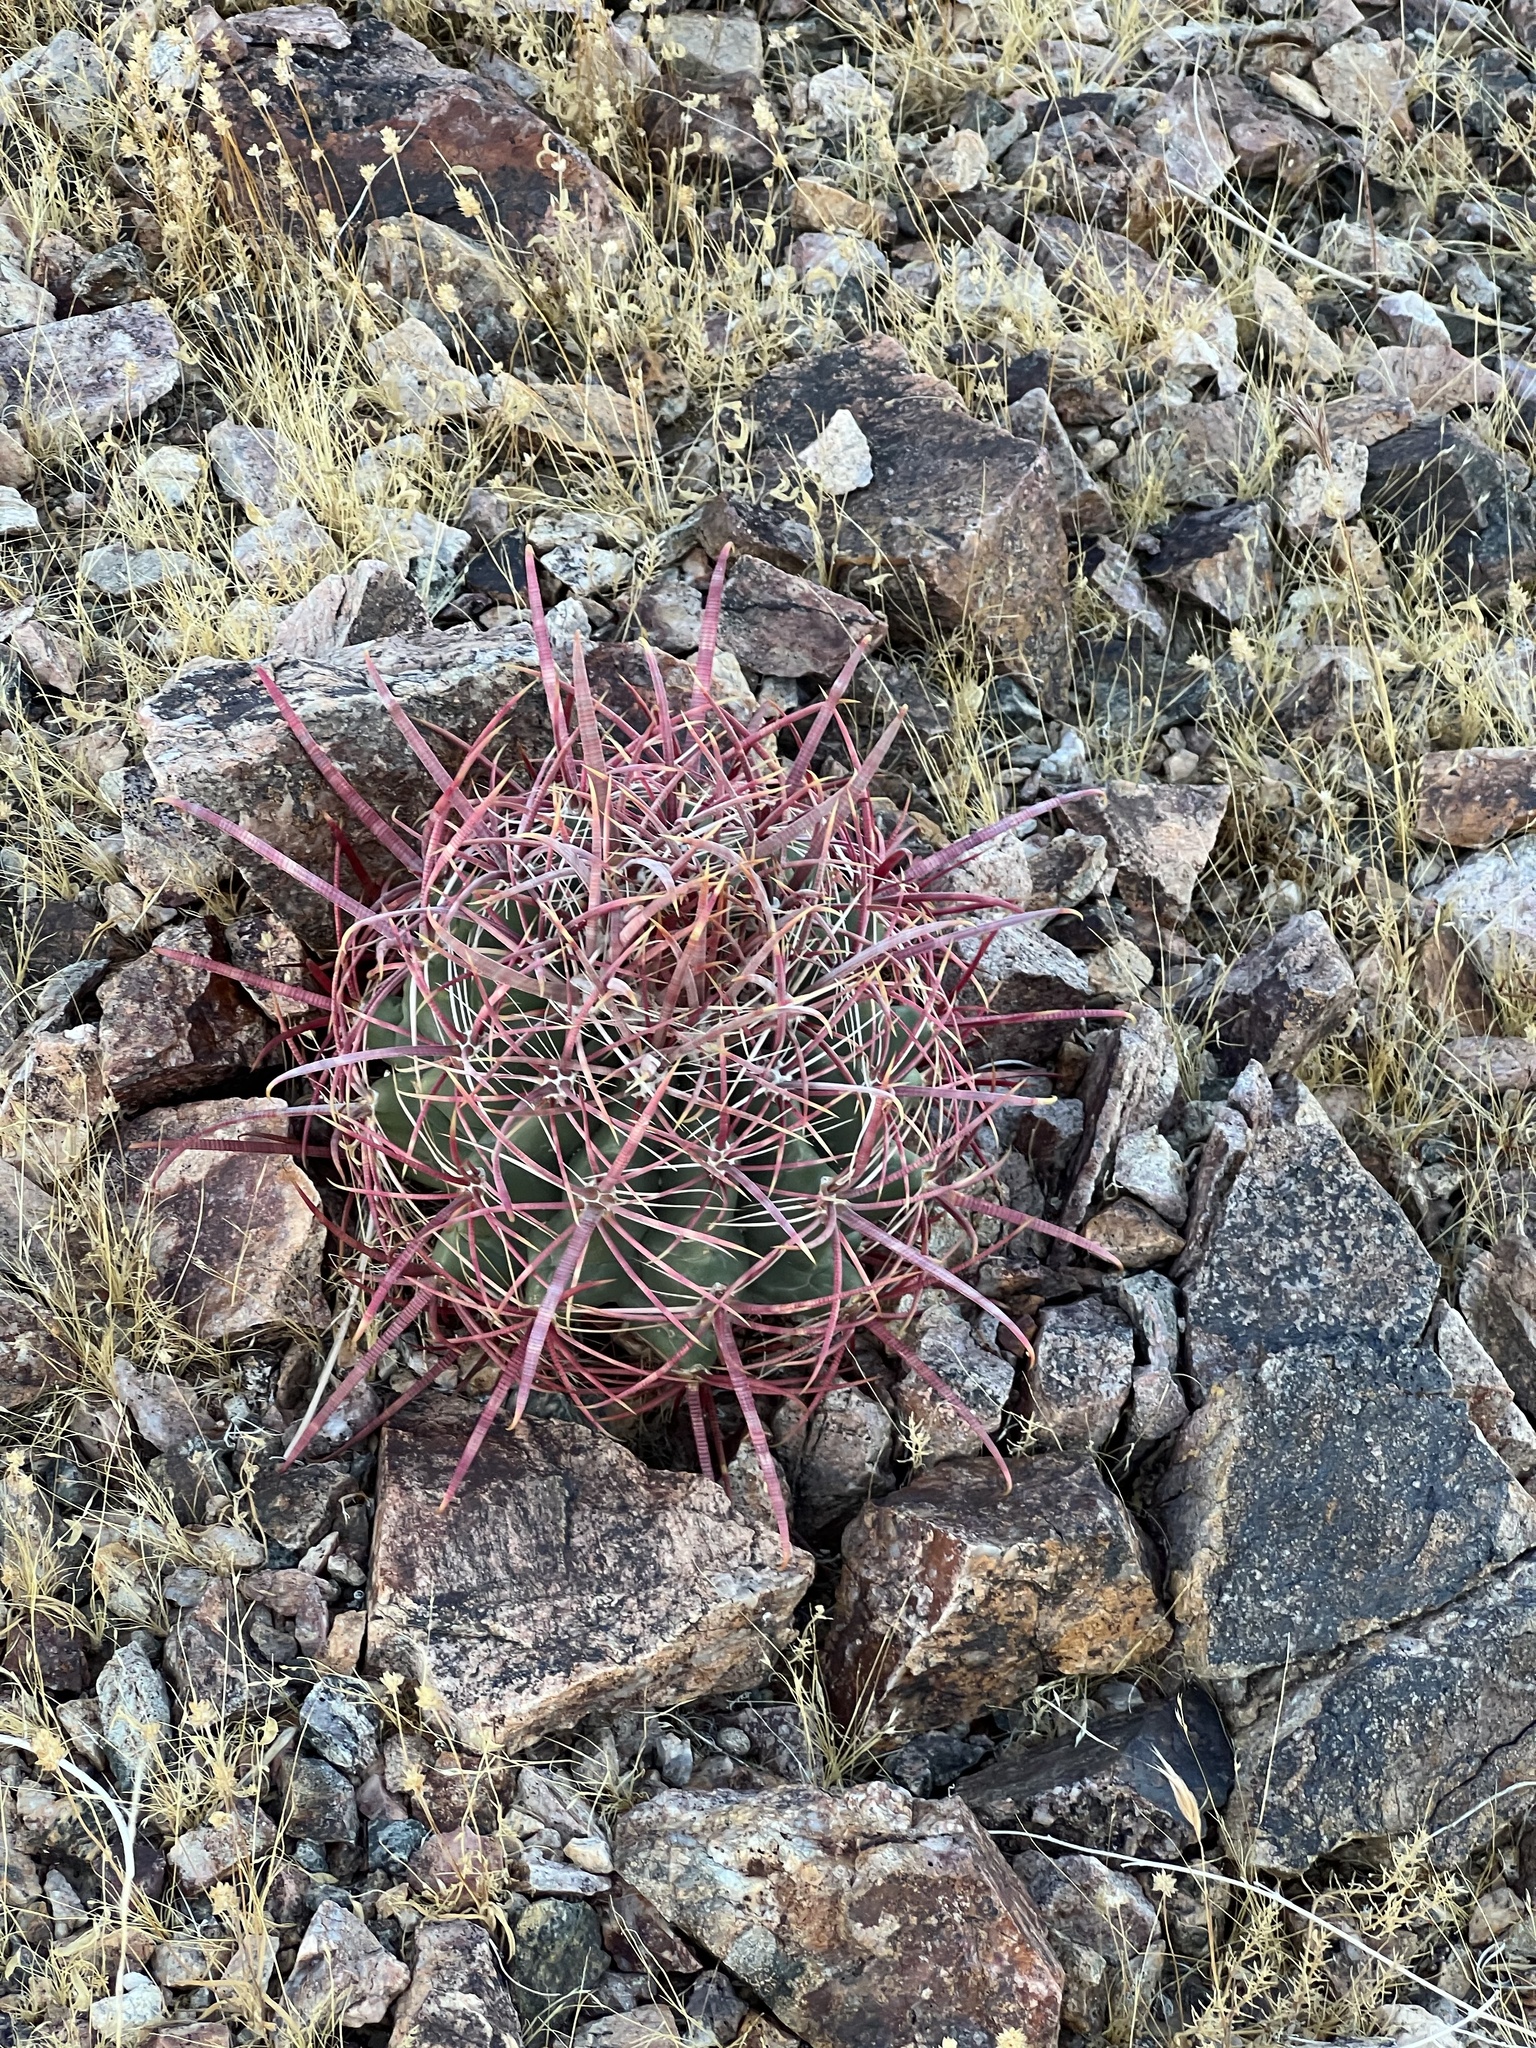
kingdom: Plantae
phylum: Tracheophyta
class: Magnoliopsida
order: Caryophyllales
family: Cactaceae
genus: Ferocactus
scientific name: Ferocactus cylindraceus
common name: California barrel cactus
